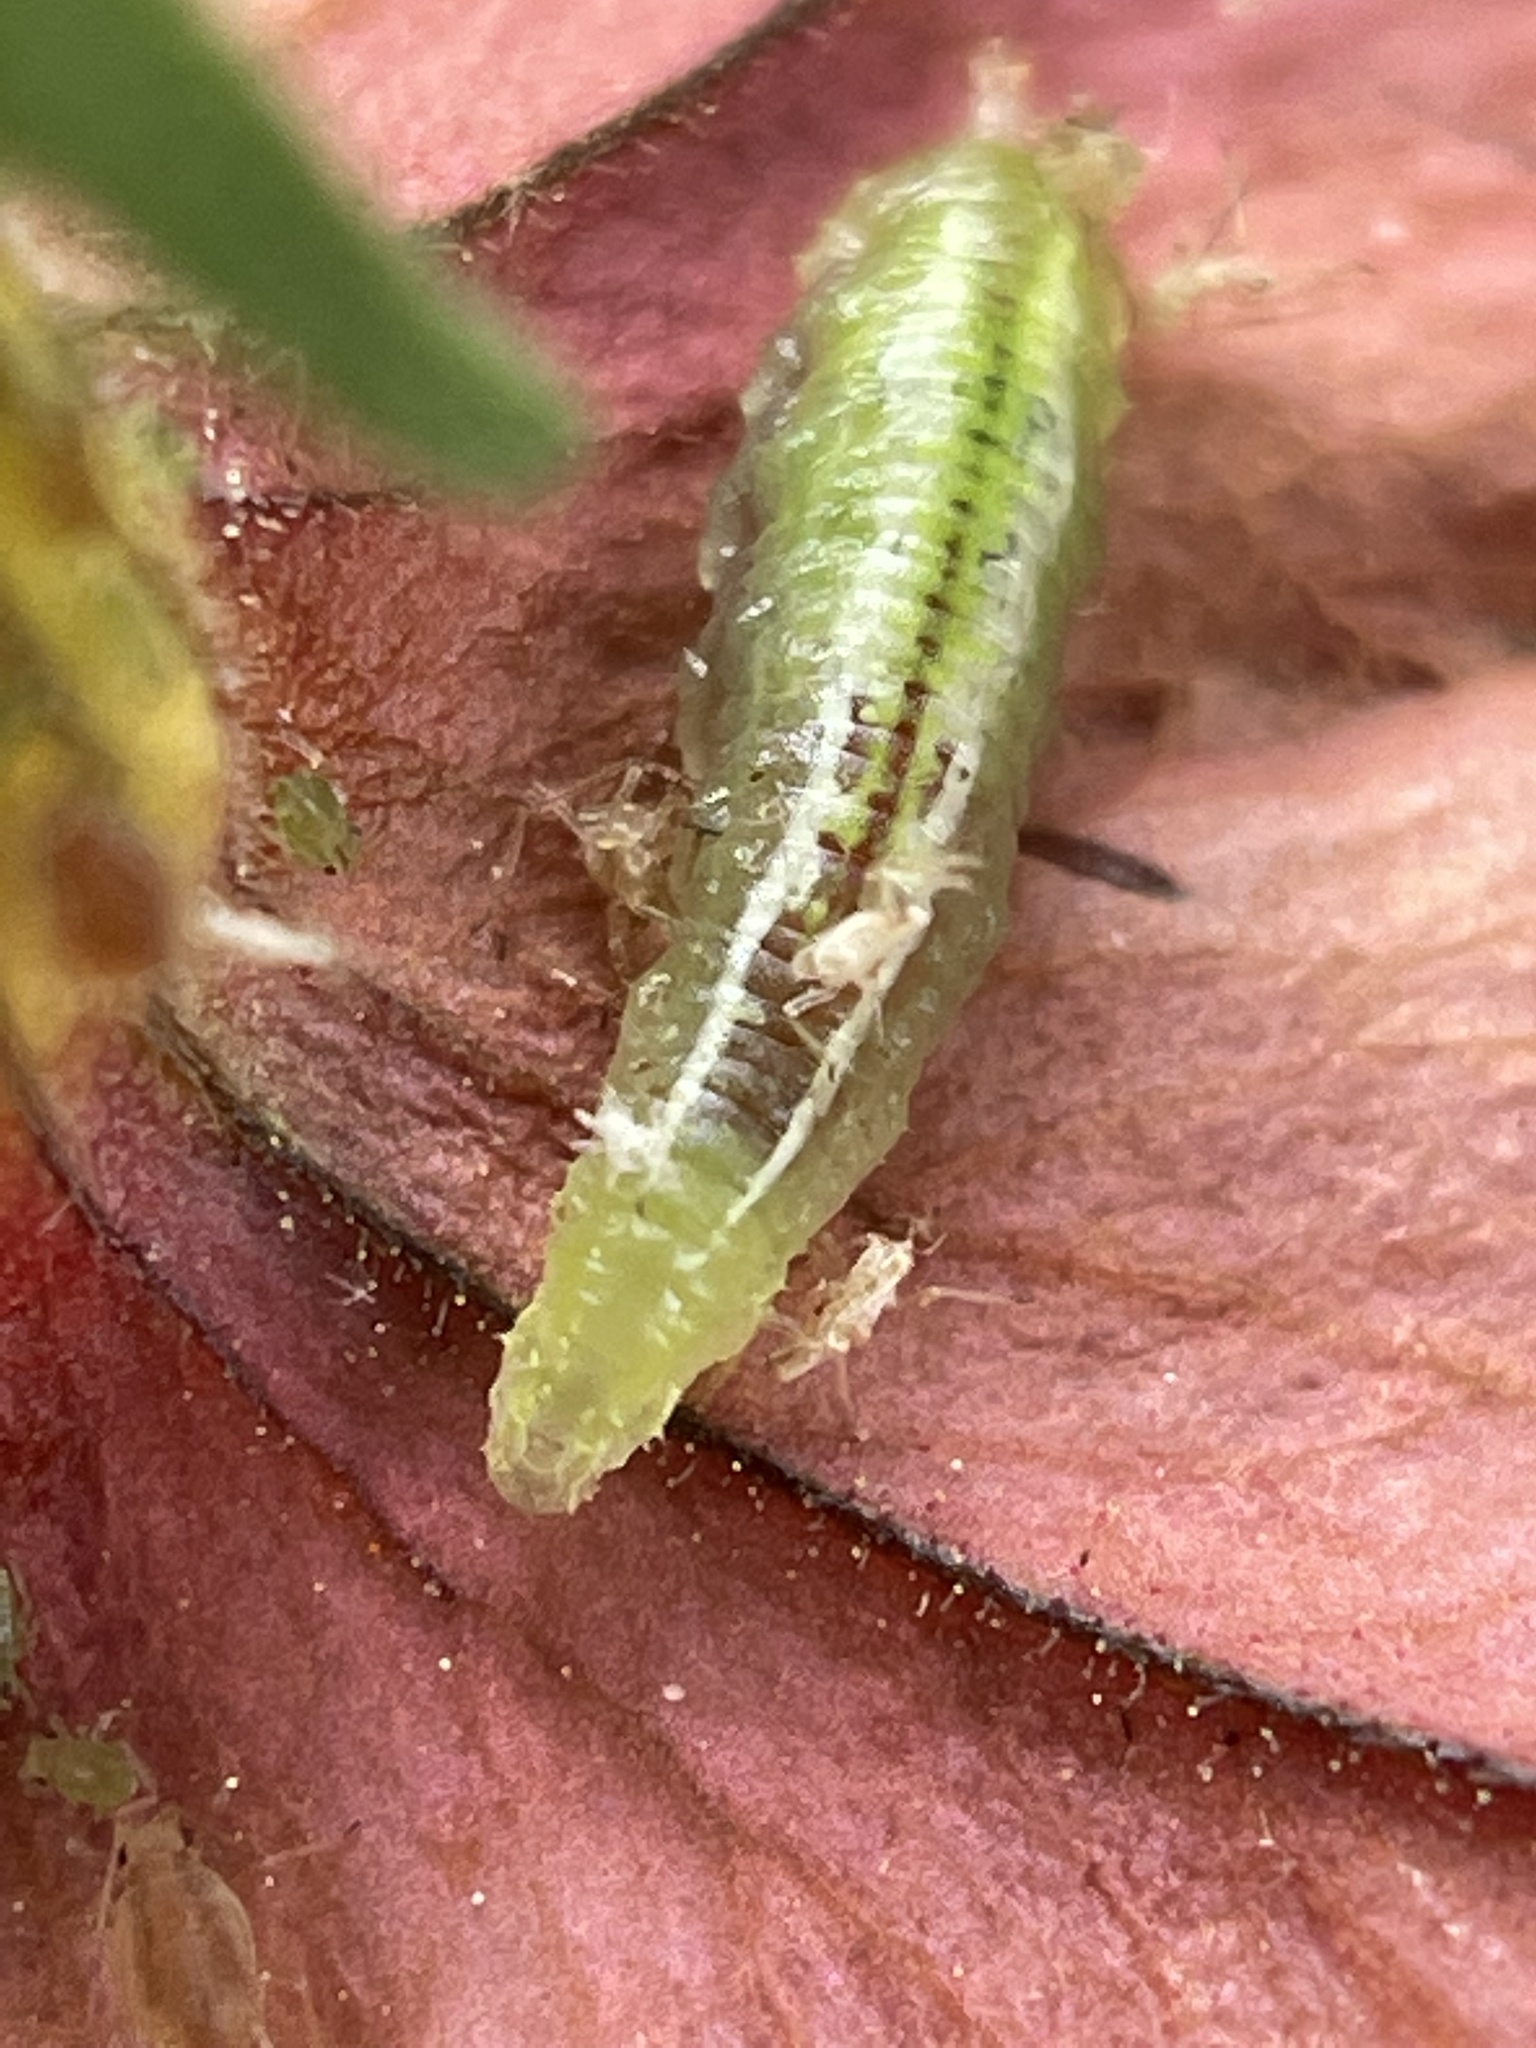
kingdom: Animalia
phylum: Arthropoda
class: Insecta
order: Diptera
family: Syrphidae
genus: Allograpta
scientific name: Allograpta
